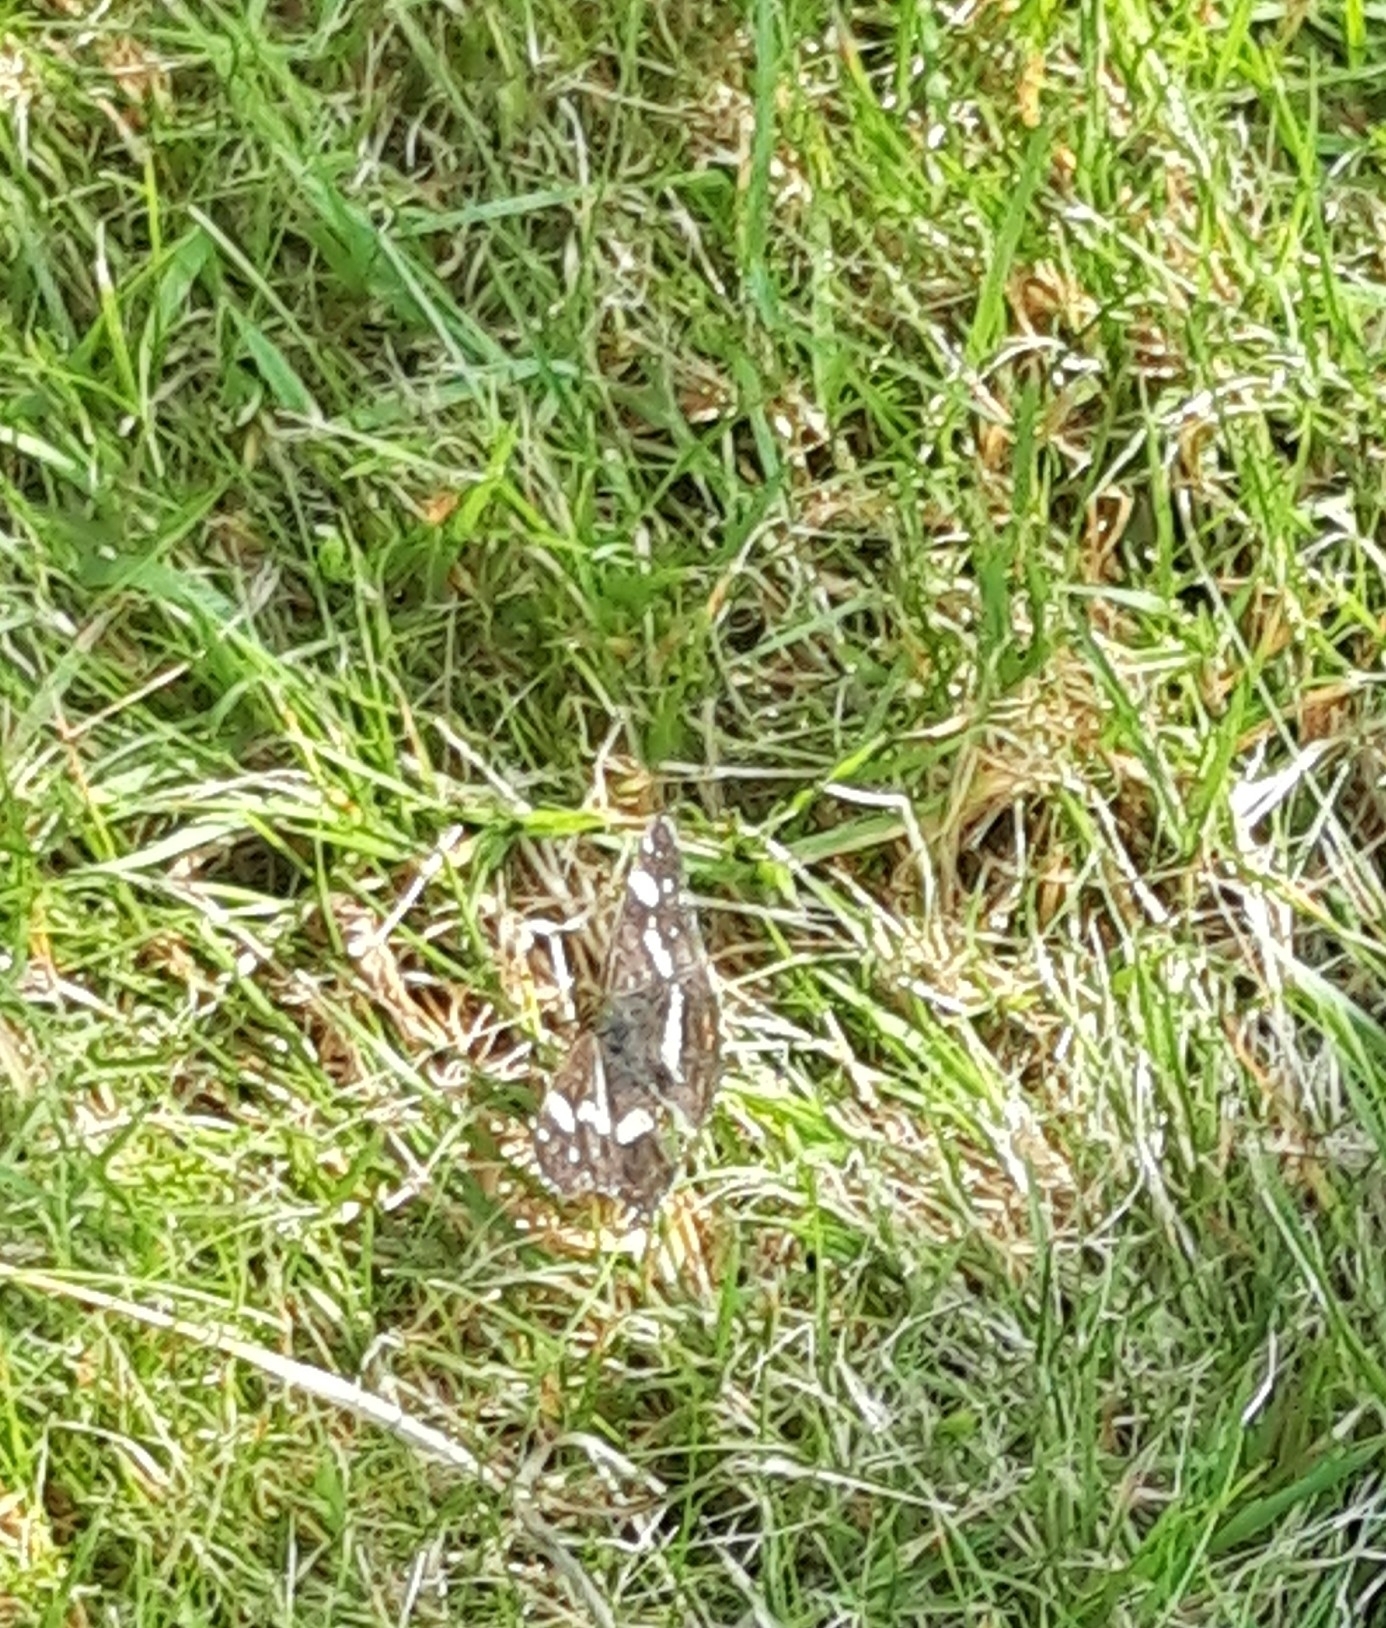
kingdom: Animalia
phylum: Arthropoda
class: Insecta
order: Lepidoptera
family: Nymphalidae
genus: Araschnia
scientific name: Araschnia levana
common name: Map butterfly
